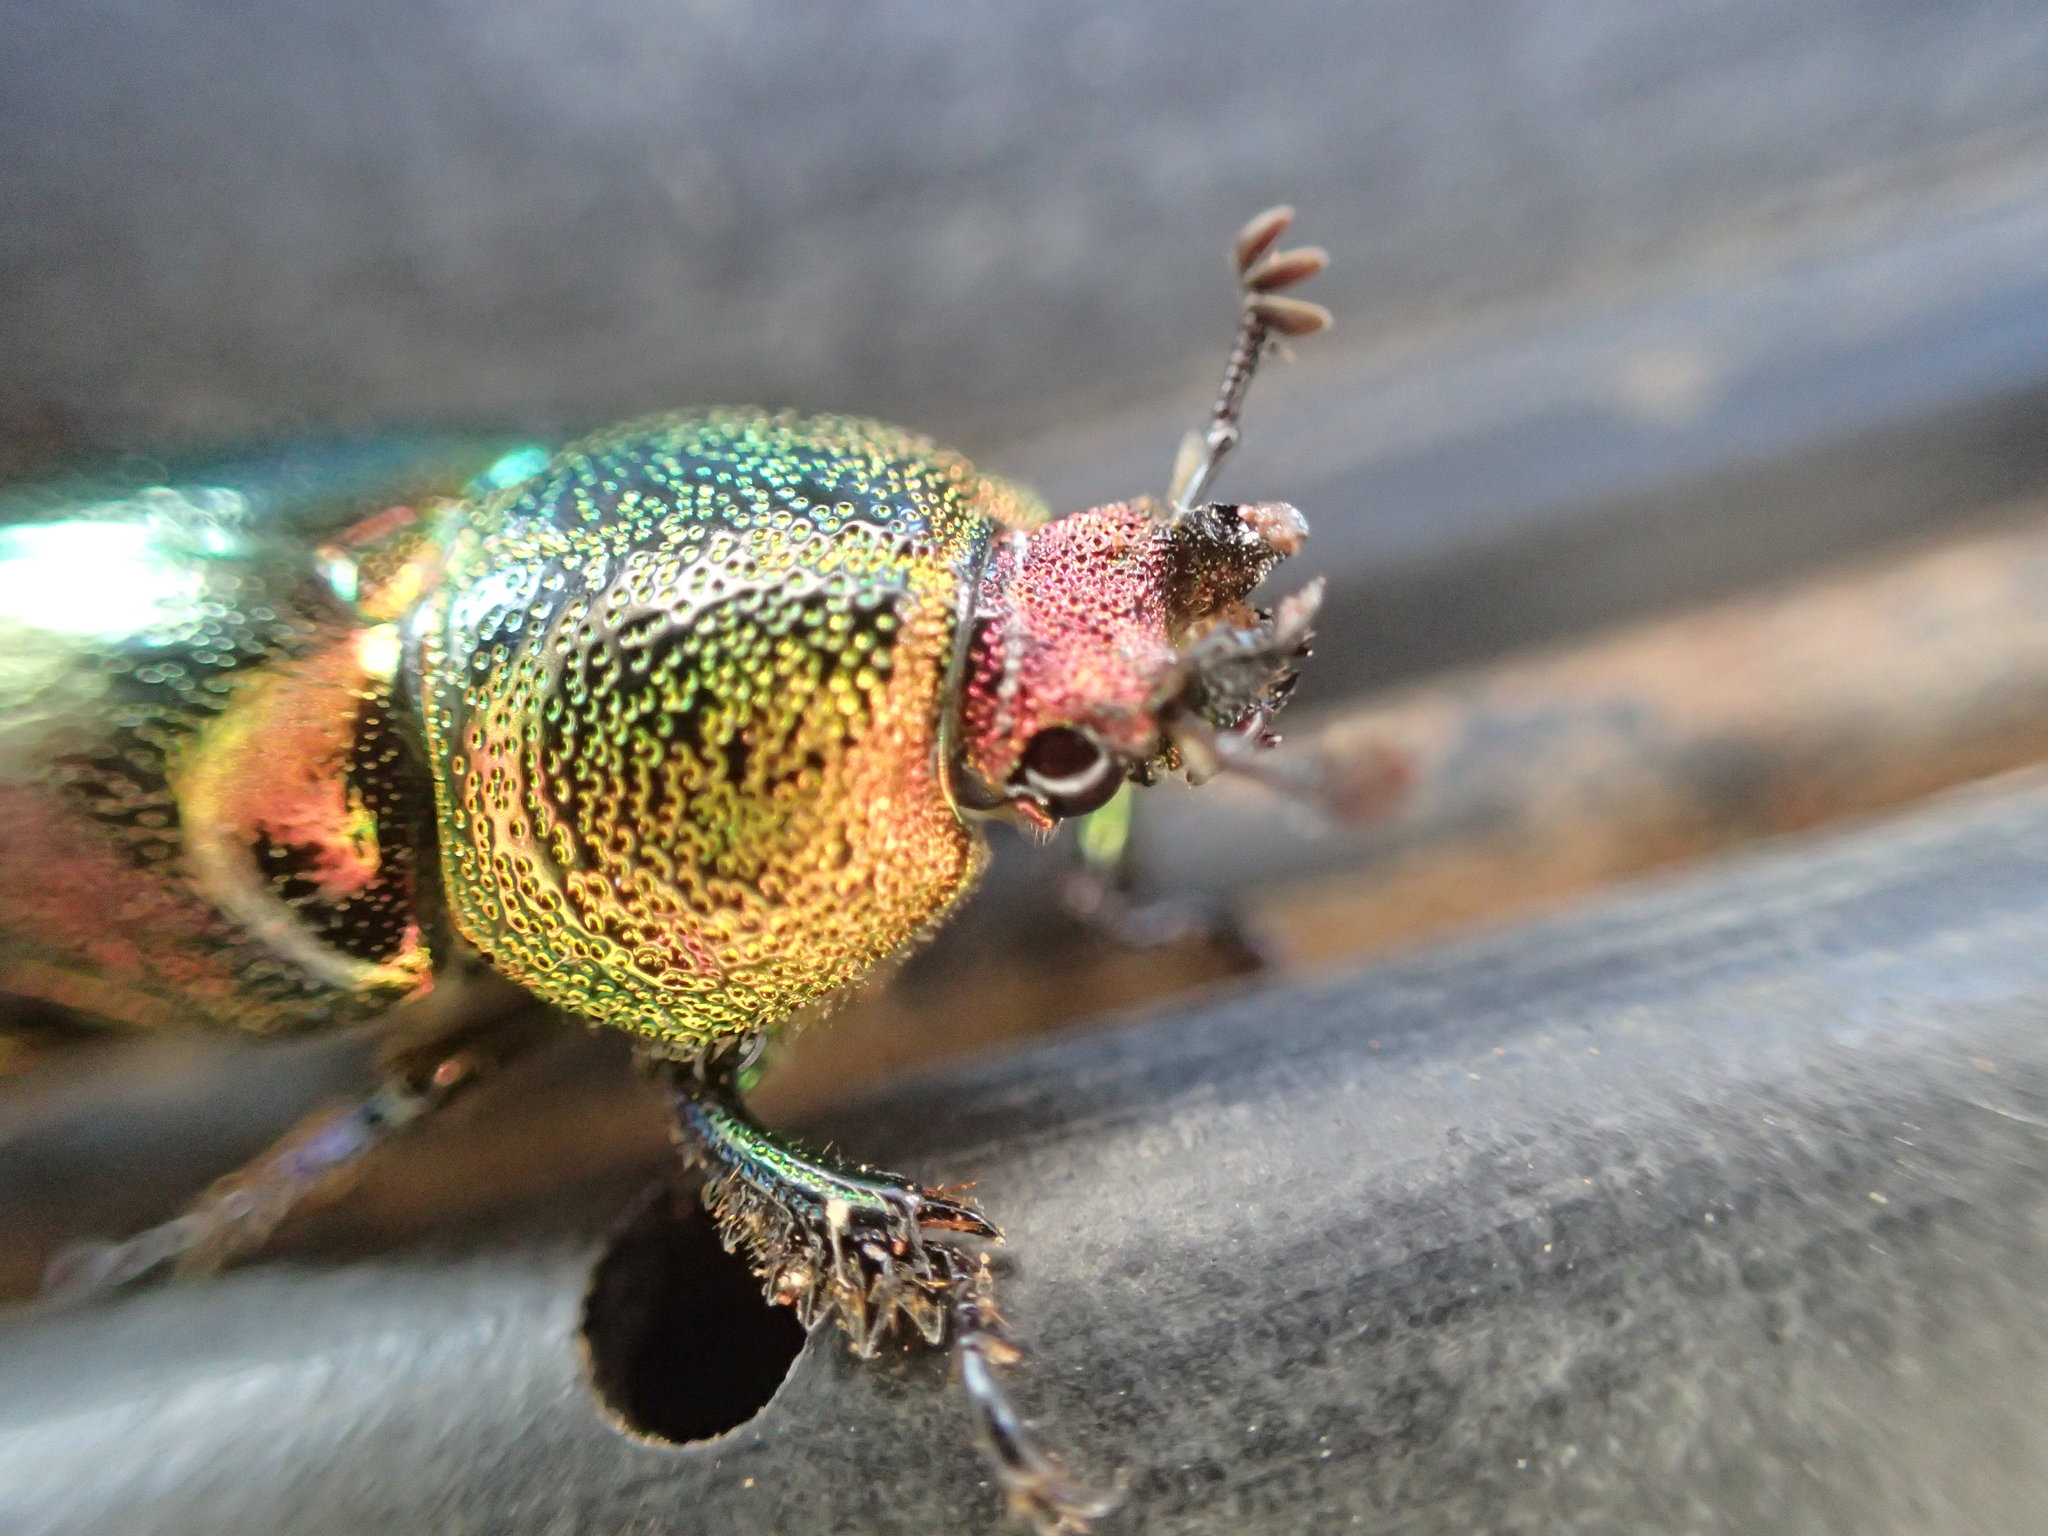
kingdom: Animalia
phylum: Arthropoda
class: Insecta
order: Coleoptera
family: Lucanidae
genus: Lamprima
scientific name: Lamprima aurata
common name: Golden stag beetle
